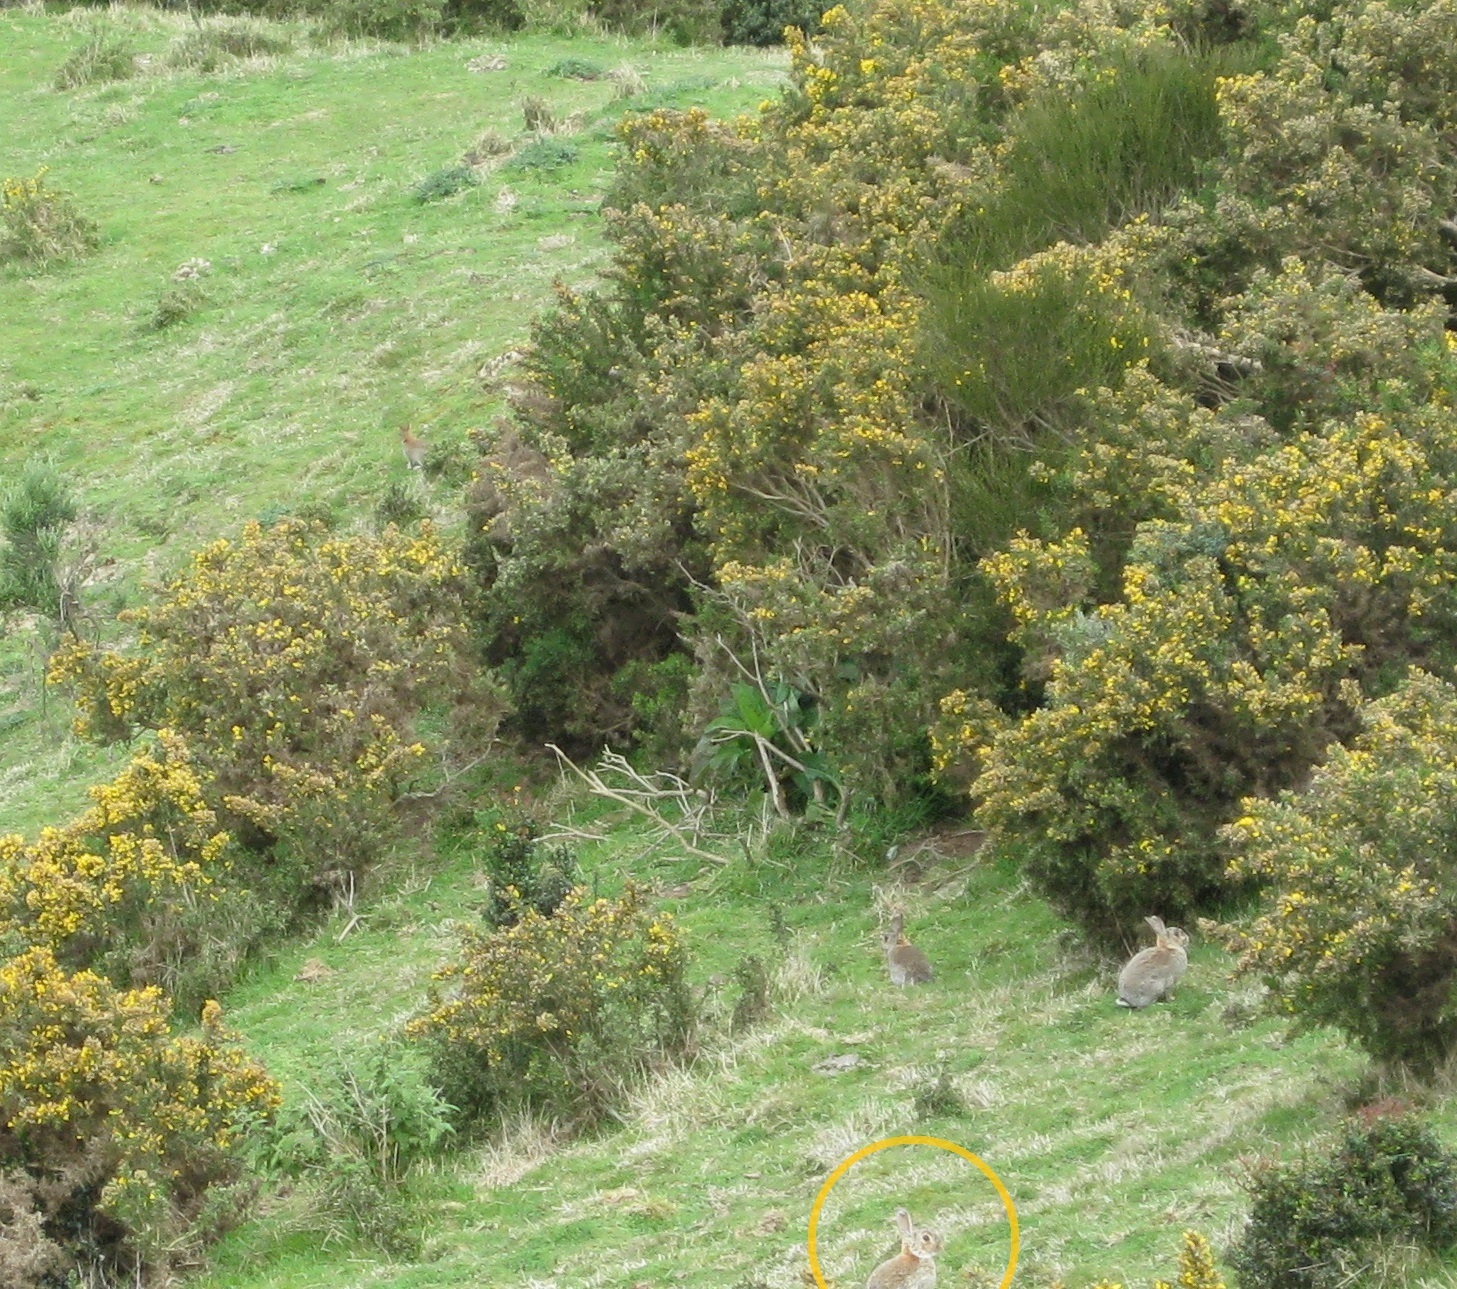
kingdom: Animalia
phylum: Chordata
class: Mammalia
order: Lagomorpha
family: Leporidae
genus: Oryctolagus
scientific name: Oryctolagus cuniculus
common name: European rabbit
